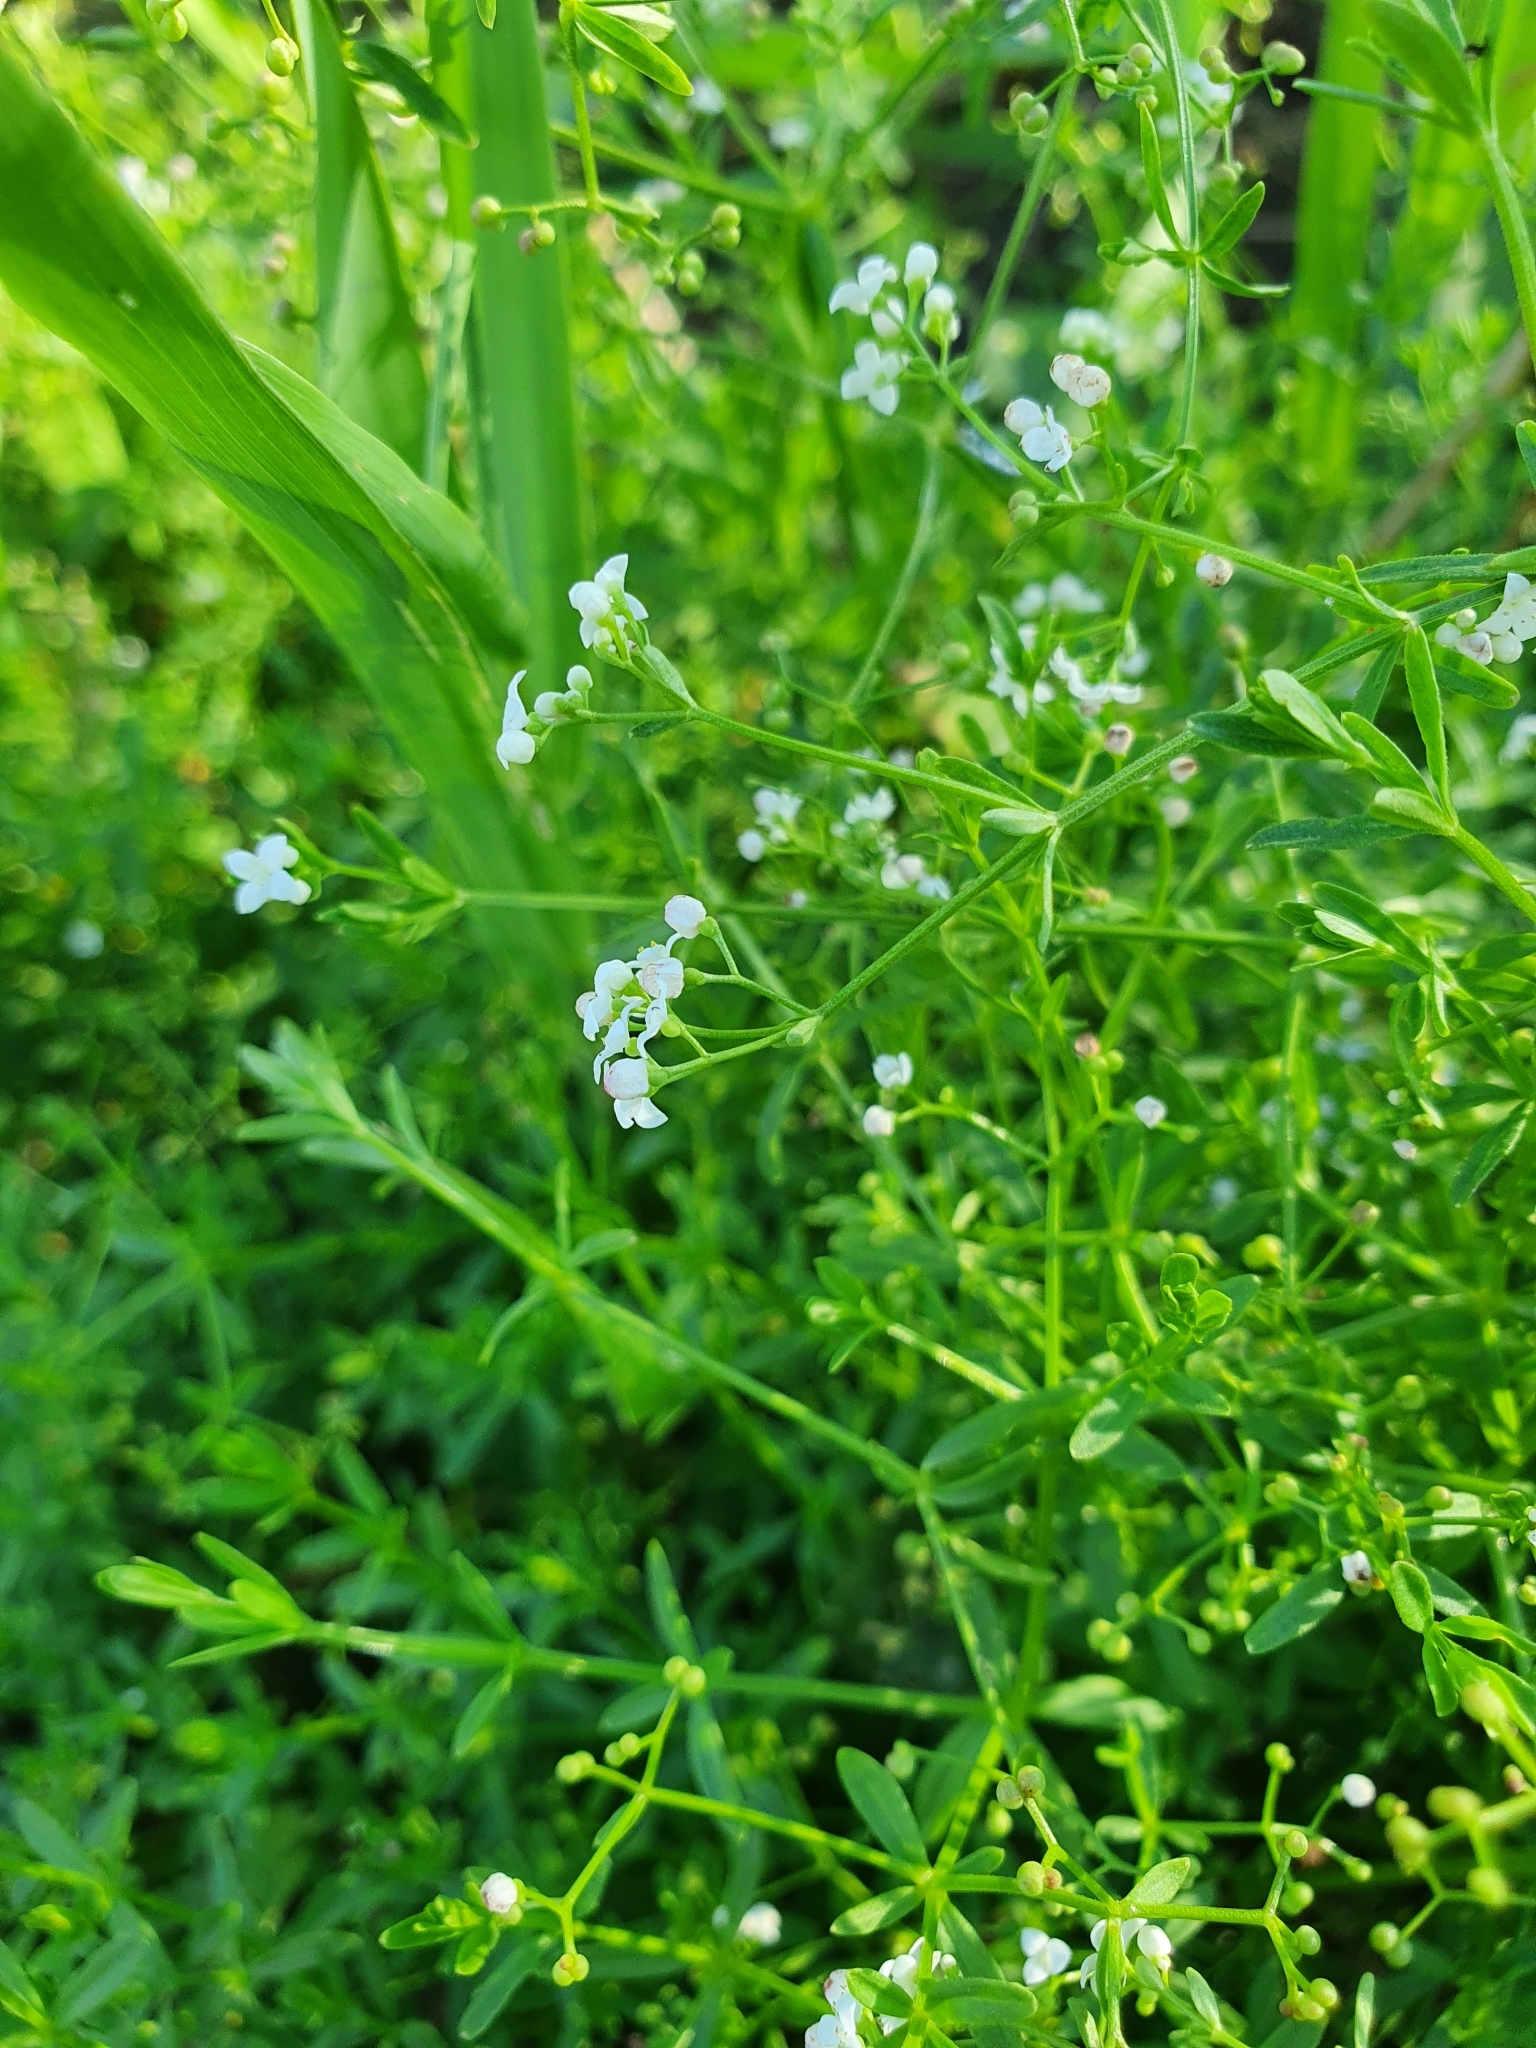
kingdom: Plantae
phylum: Tracheophyta
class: Magnoliopsida
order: Gentianales
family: Rubiaceae
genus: Galium
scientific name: Galium palustre
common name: Common marsh-bedstraw
